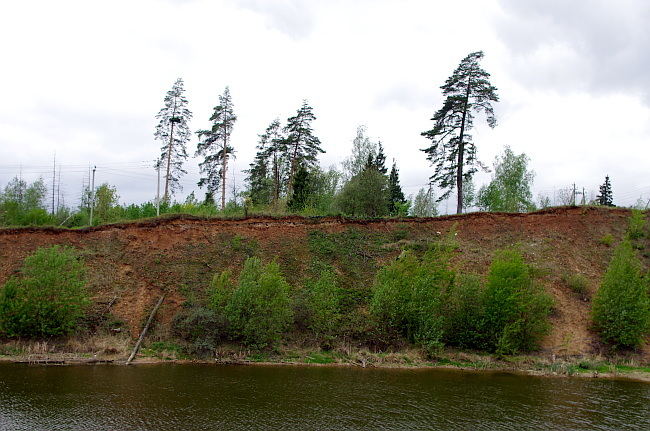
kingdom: Plantae
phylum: Tracheophyta
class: Pinopsida
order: Pinales
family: Pinaceae
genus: Pinus
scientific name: Pinus sylvestris
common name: Scots pine
